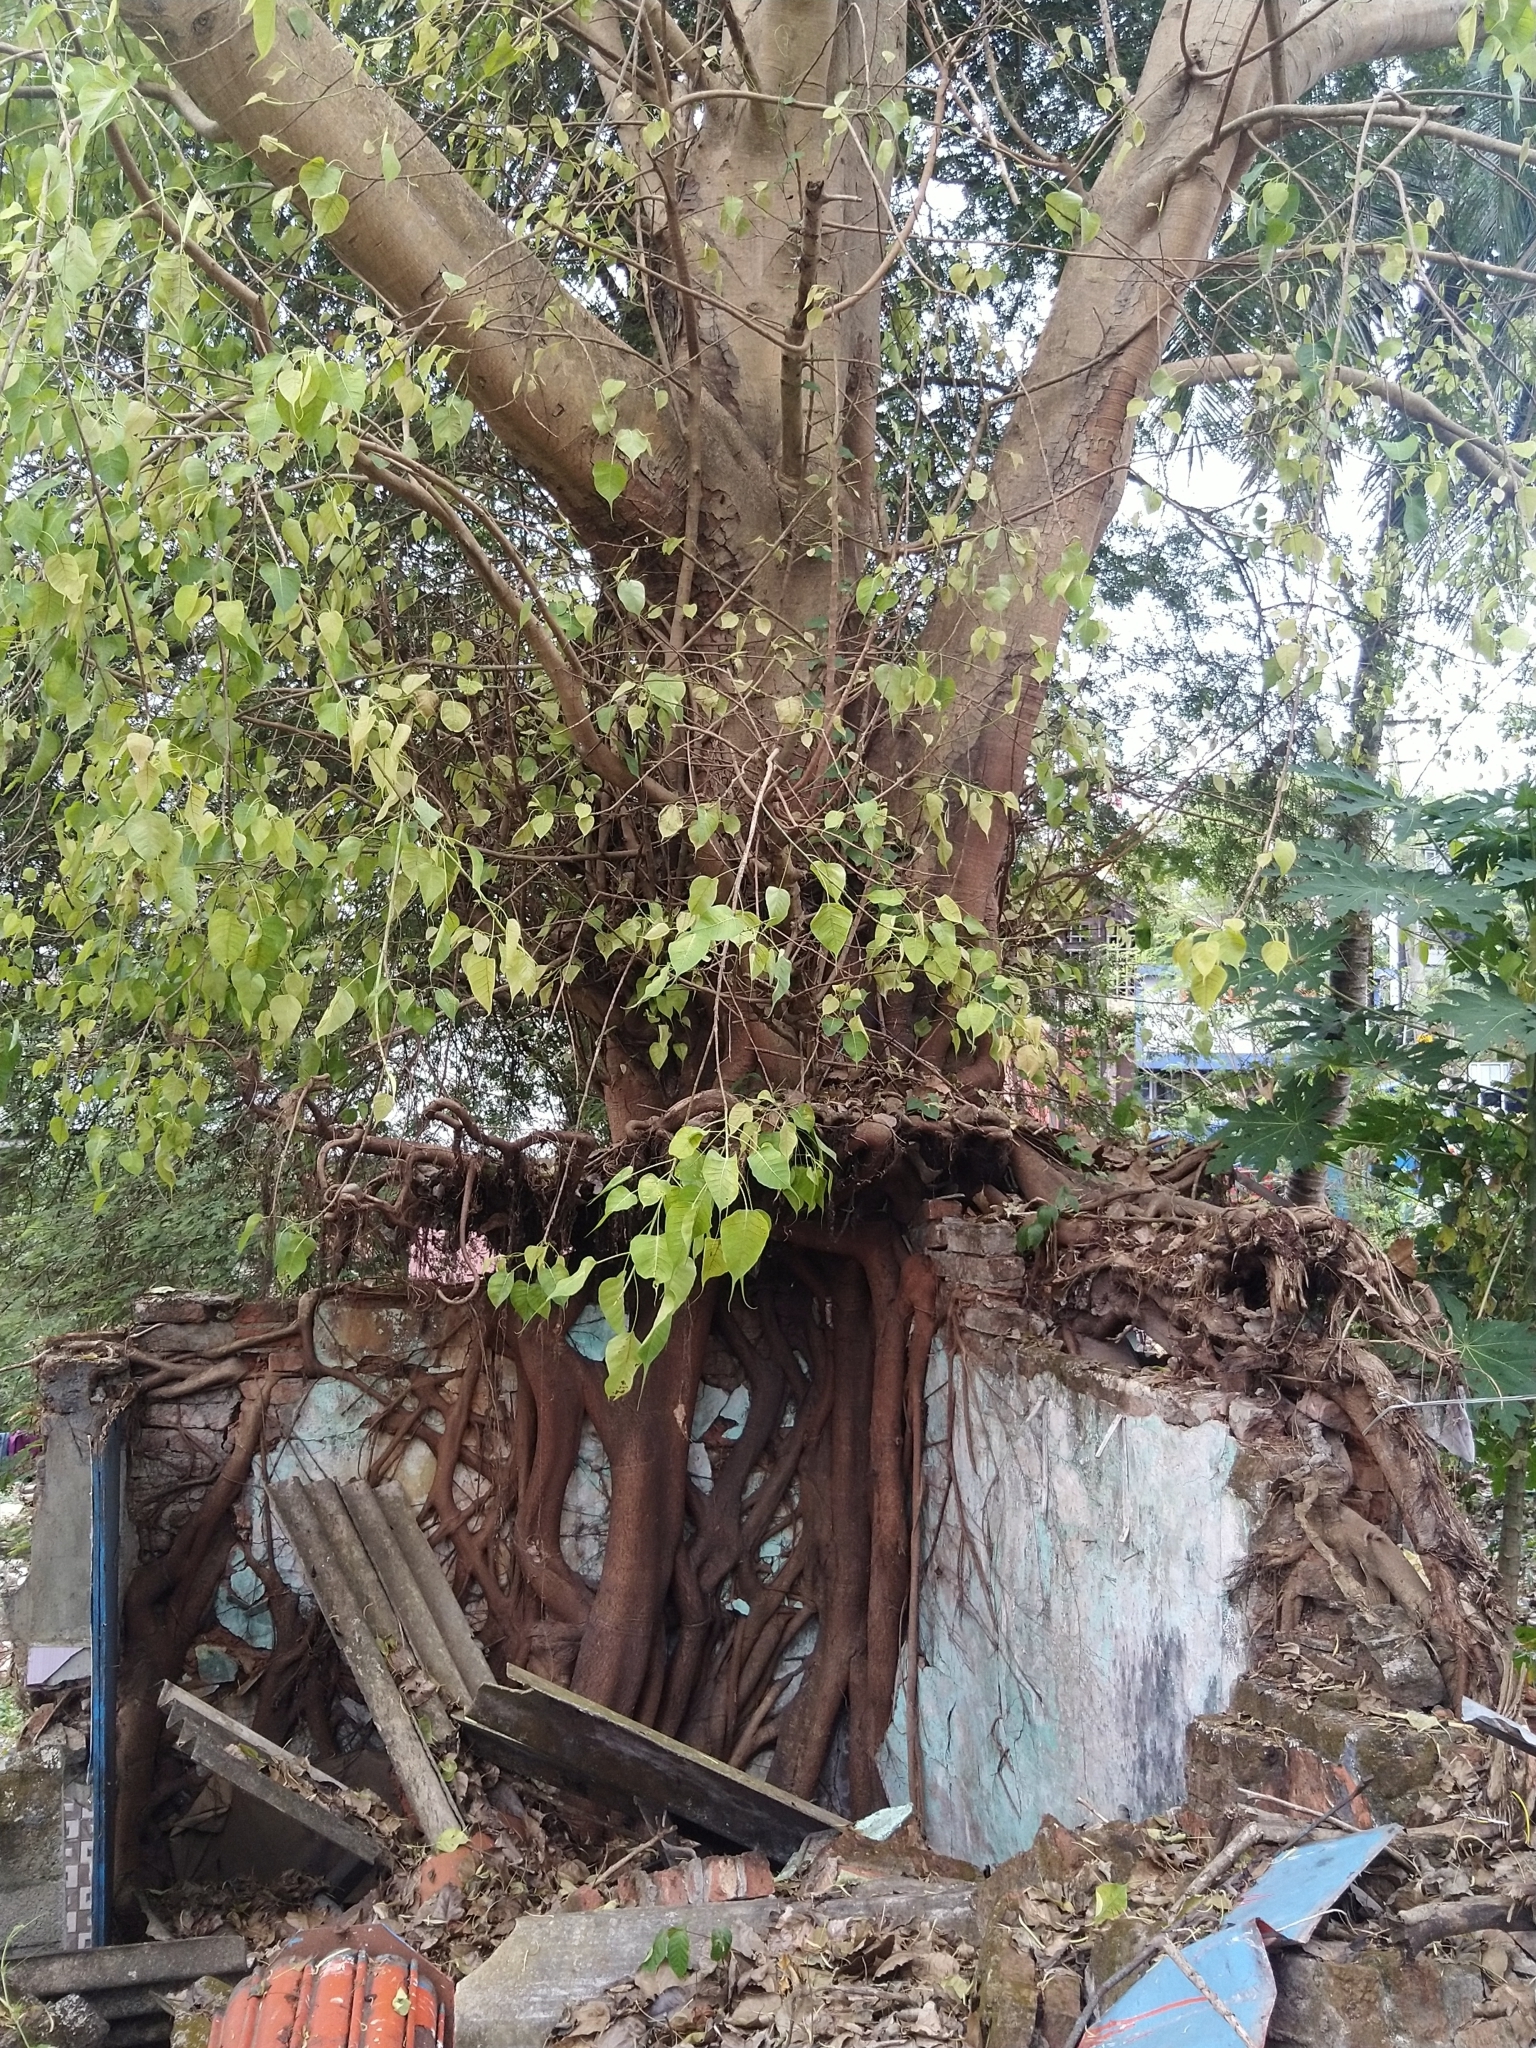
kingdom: Plantae
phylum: Tracheophyta
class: Magnoliopsida
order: Rosales
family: Moraceae
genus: Ficus
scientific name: Ficus religiosa
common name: Bodhi tree
